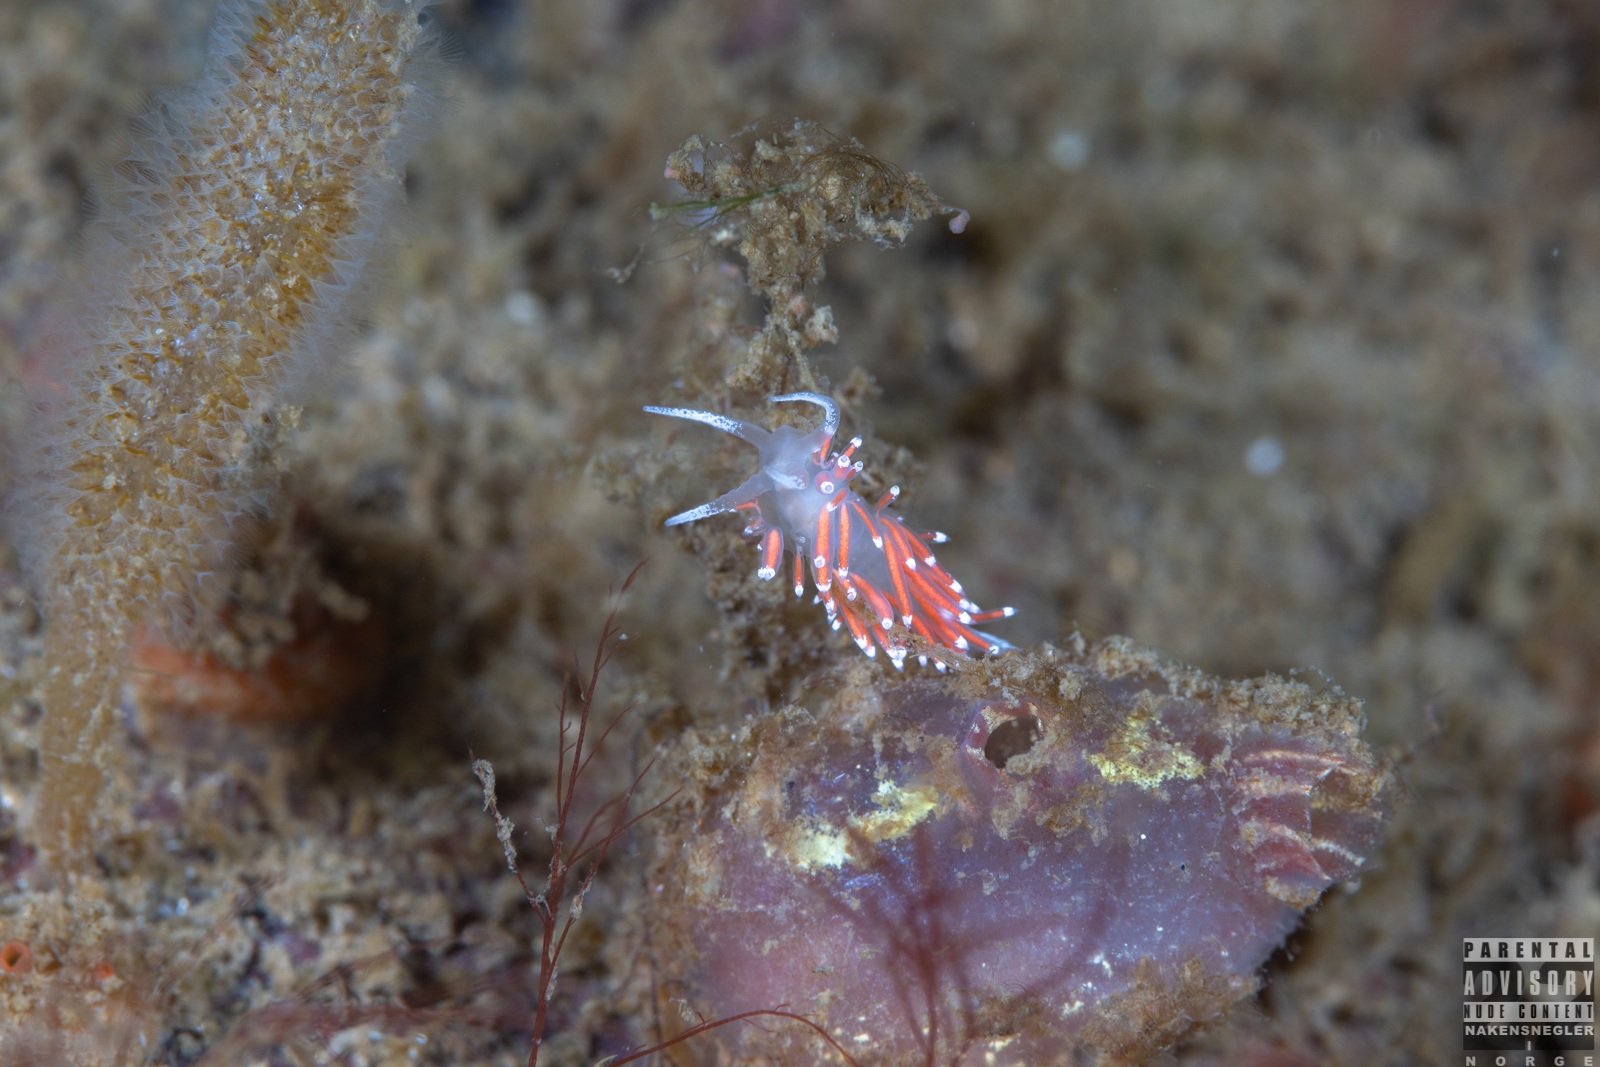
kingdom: Animalia
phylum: Mollusca
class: Gastropoda
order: Nudibranchia
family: Coryphellidae
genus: Coryphella
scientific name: Coryphella gracilis
